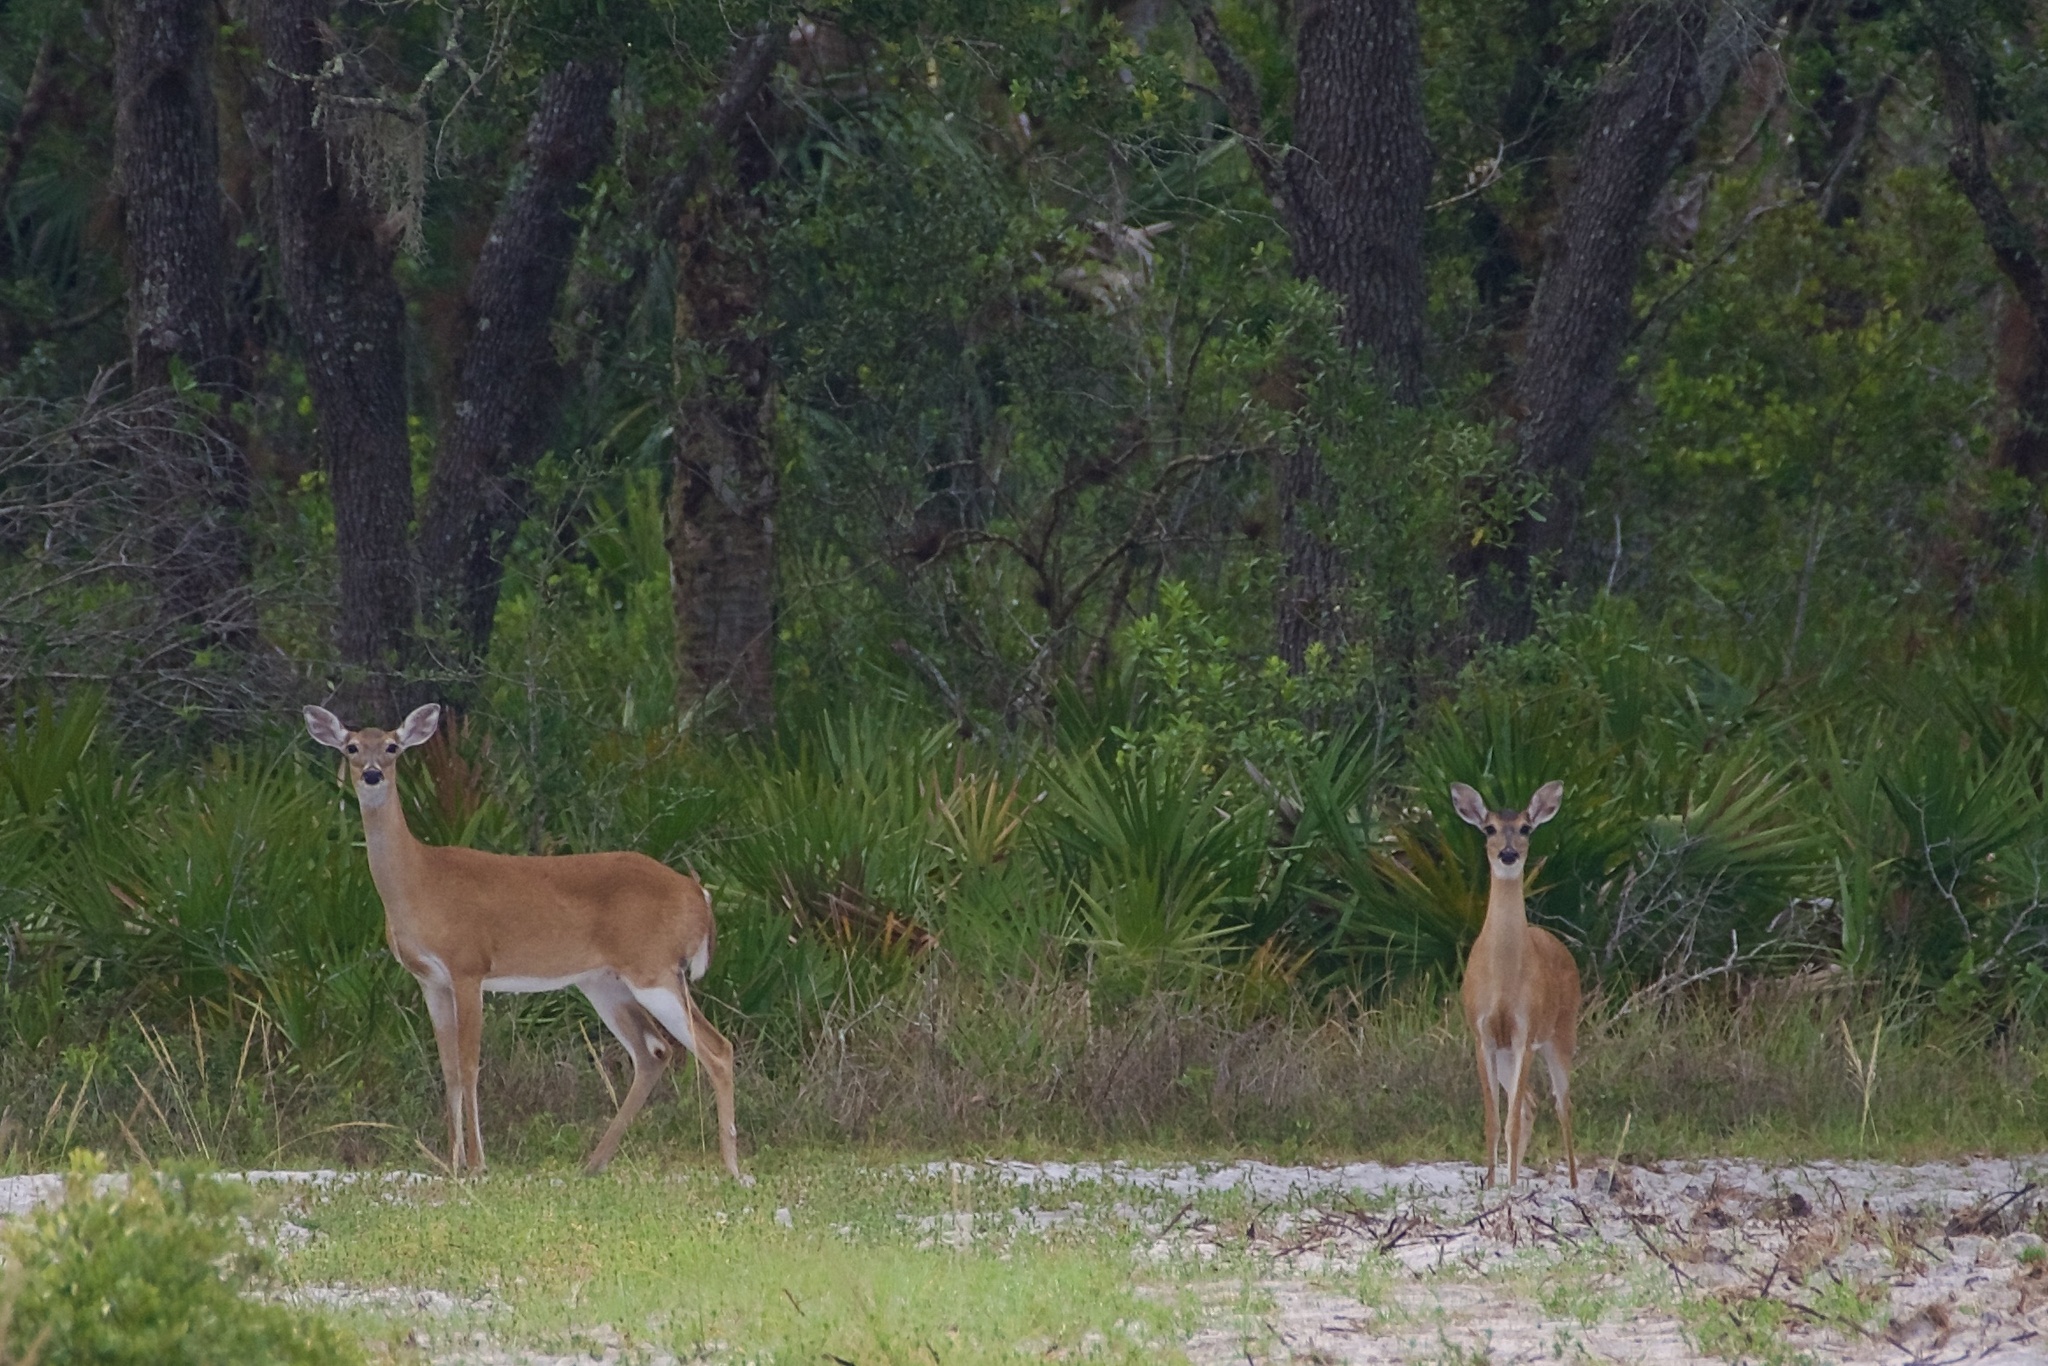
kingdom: Animalia
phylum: Chordata
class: Mammalia
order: Artiodactyla
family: Cervidae
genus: Odocoileus
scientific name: Odocoileus virginianus
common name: White-tailed deer
